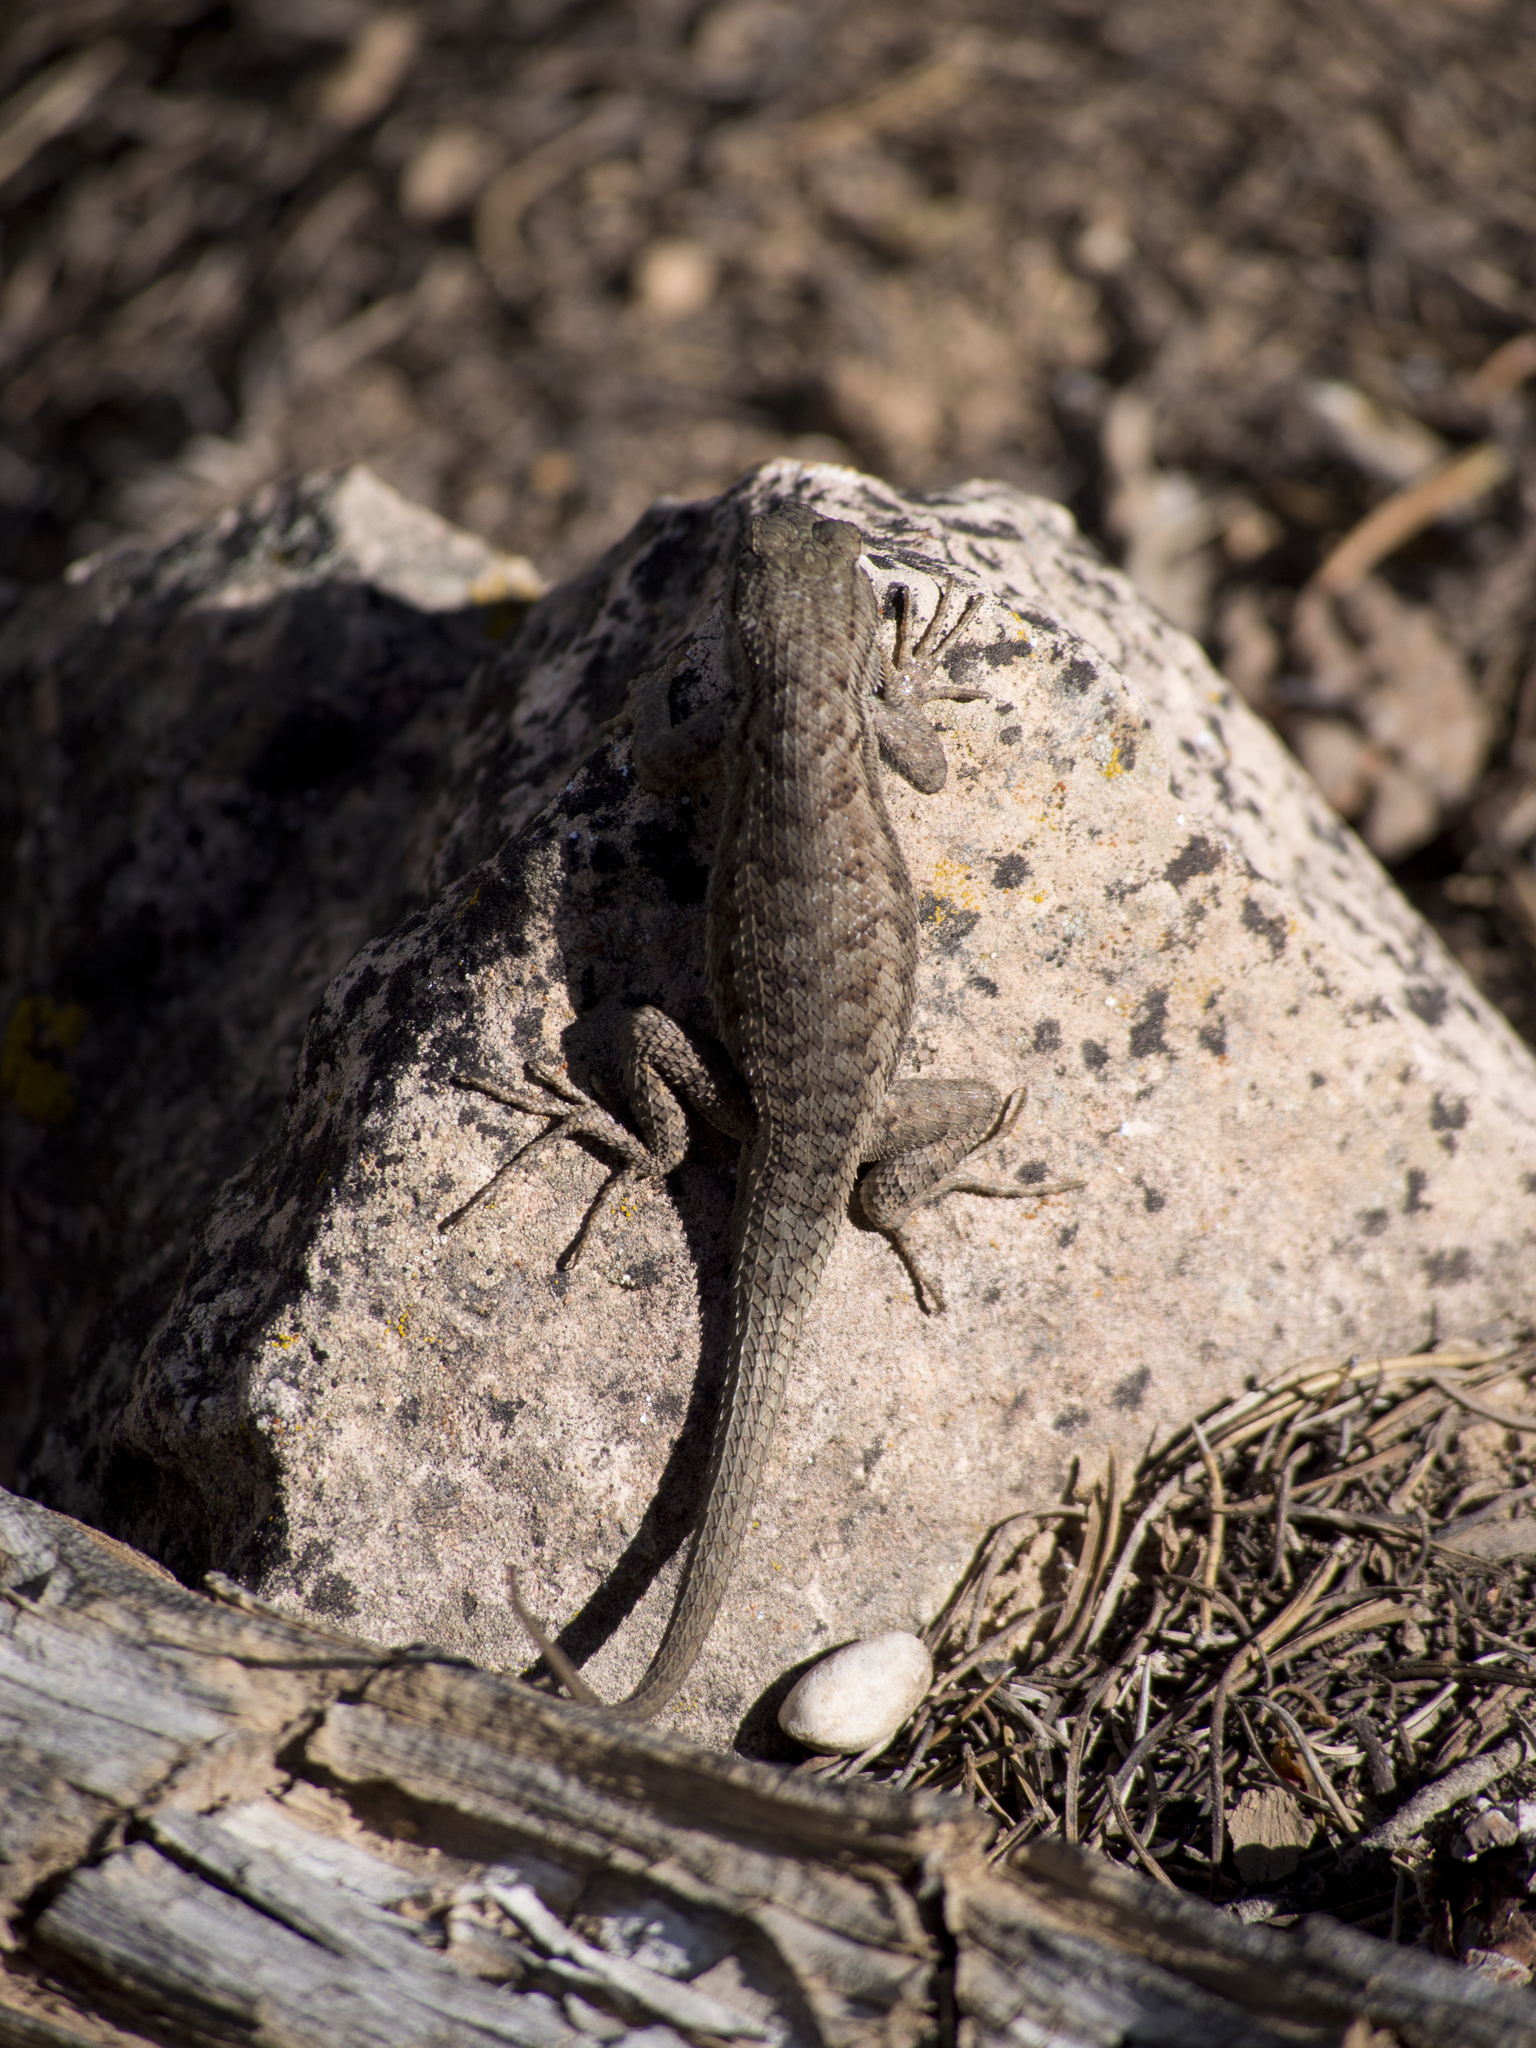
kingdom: Animalia
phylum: Chordata
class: Squamata
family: Phrynosomatidae
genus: Sceloporus
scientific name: Sceloporus tristichus
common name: Plateau fence lizard
